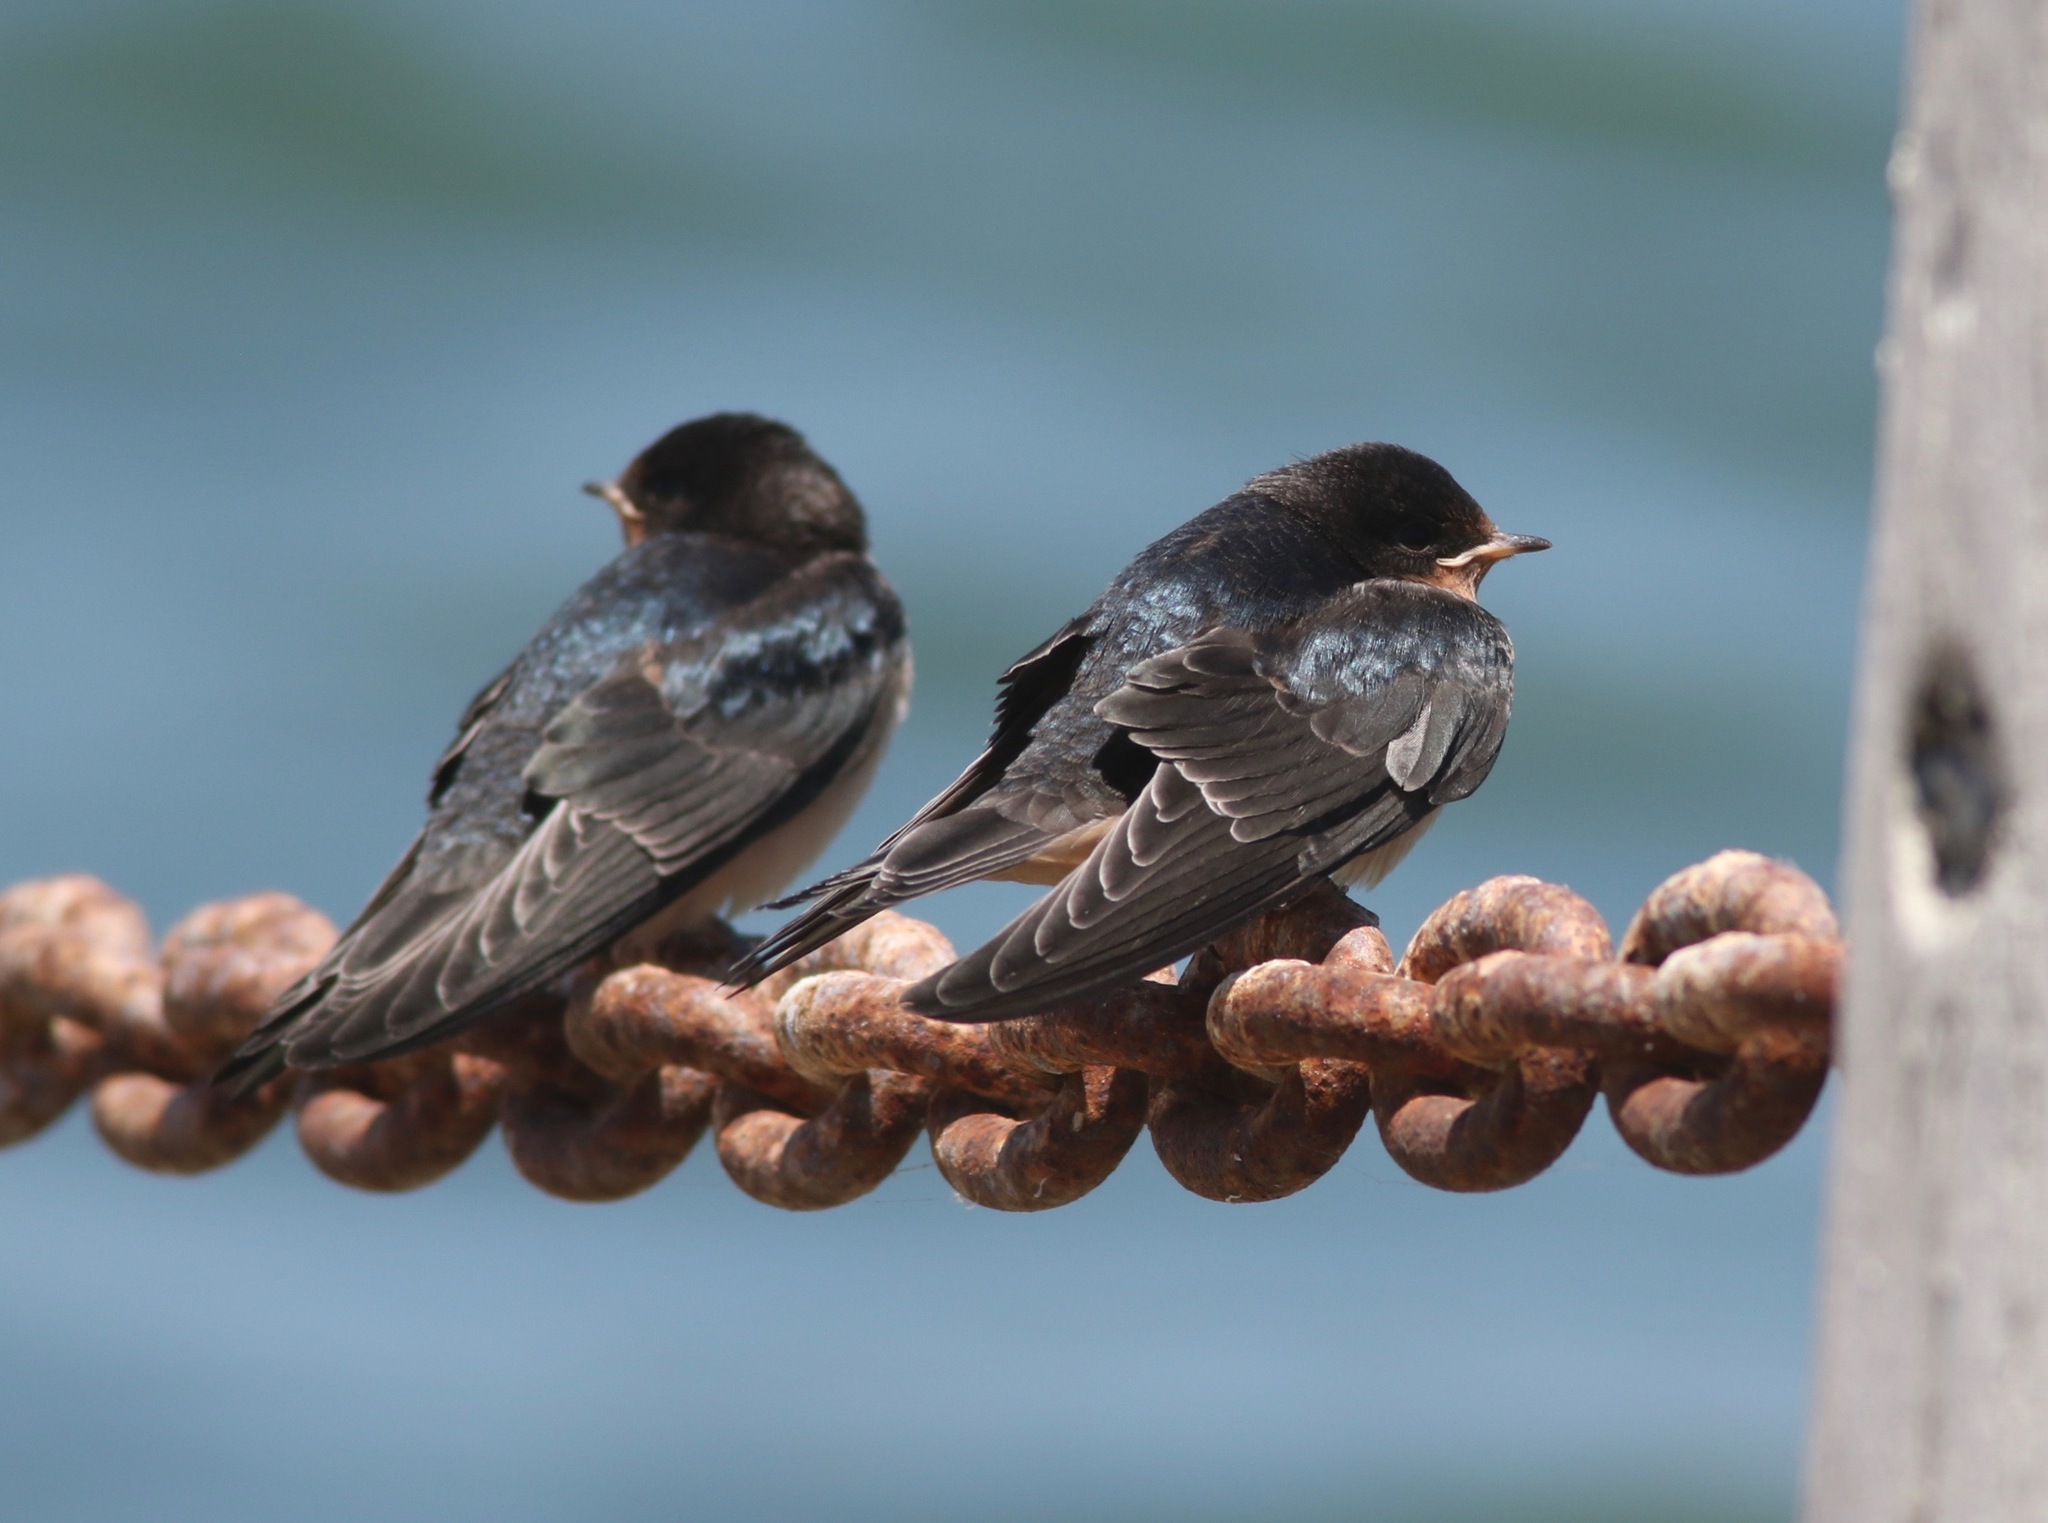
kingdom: Animalia
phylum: Chordata
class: Aves
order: Passeriformes
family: Hirundinidae
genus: Hirundo
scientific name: Hirundo rustica
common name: Barn swallow
